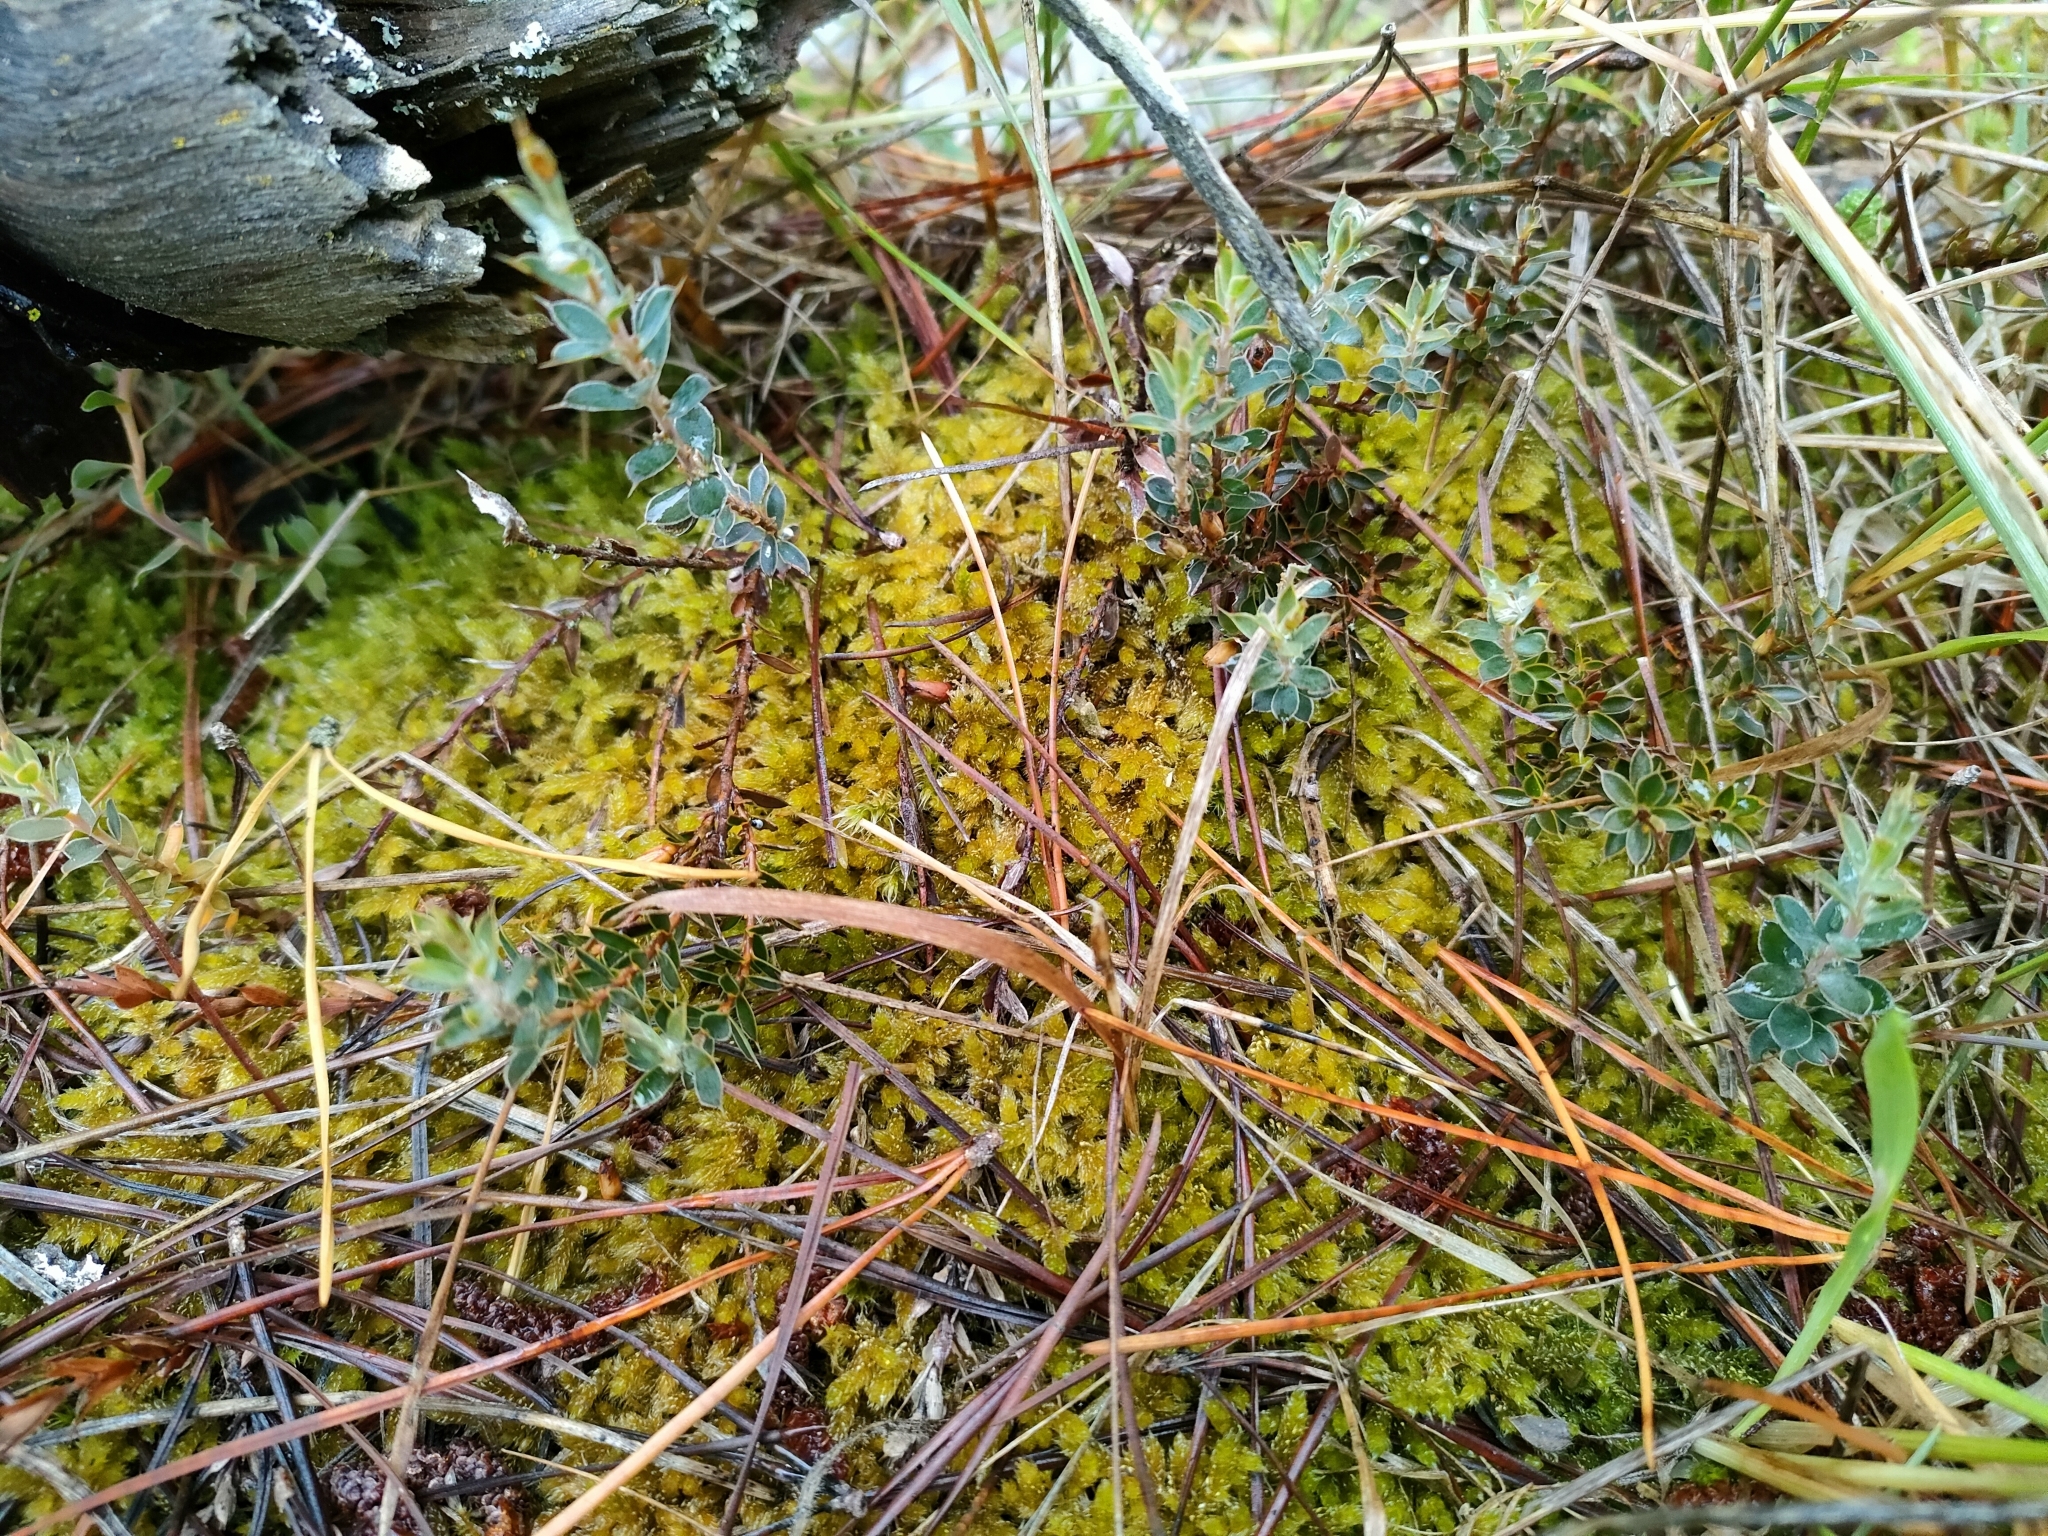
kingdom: Plantae
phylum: Tracheophyta
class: Magnoliopsida
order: Ericales
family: Ericaceae
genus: Styphelia
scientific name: Styphelia nesophila
